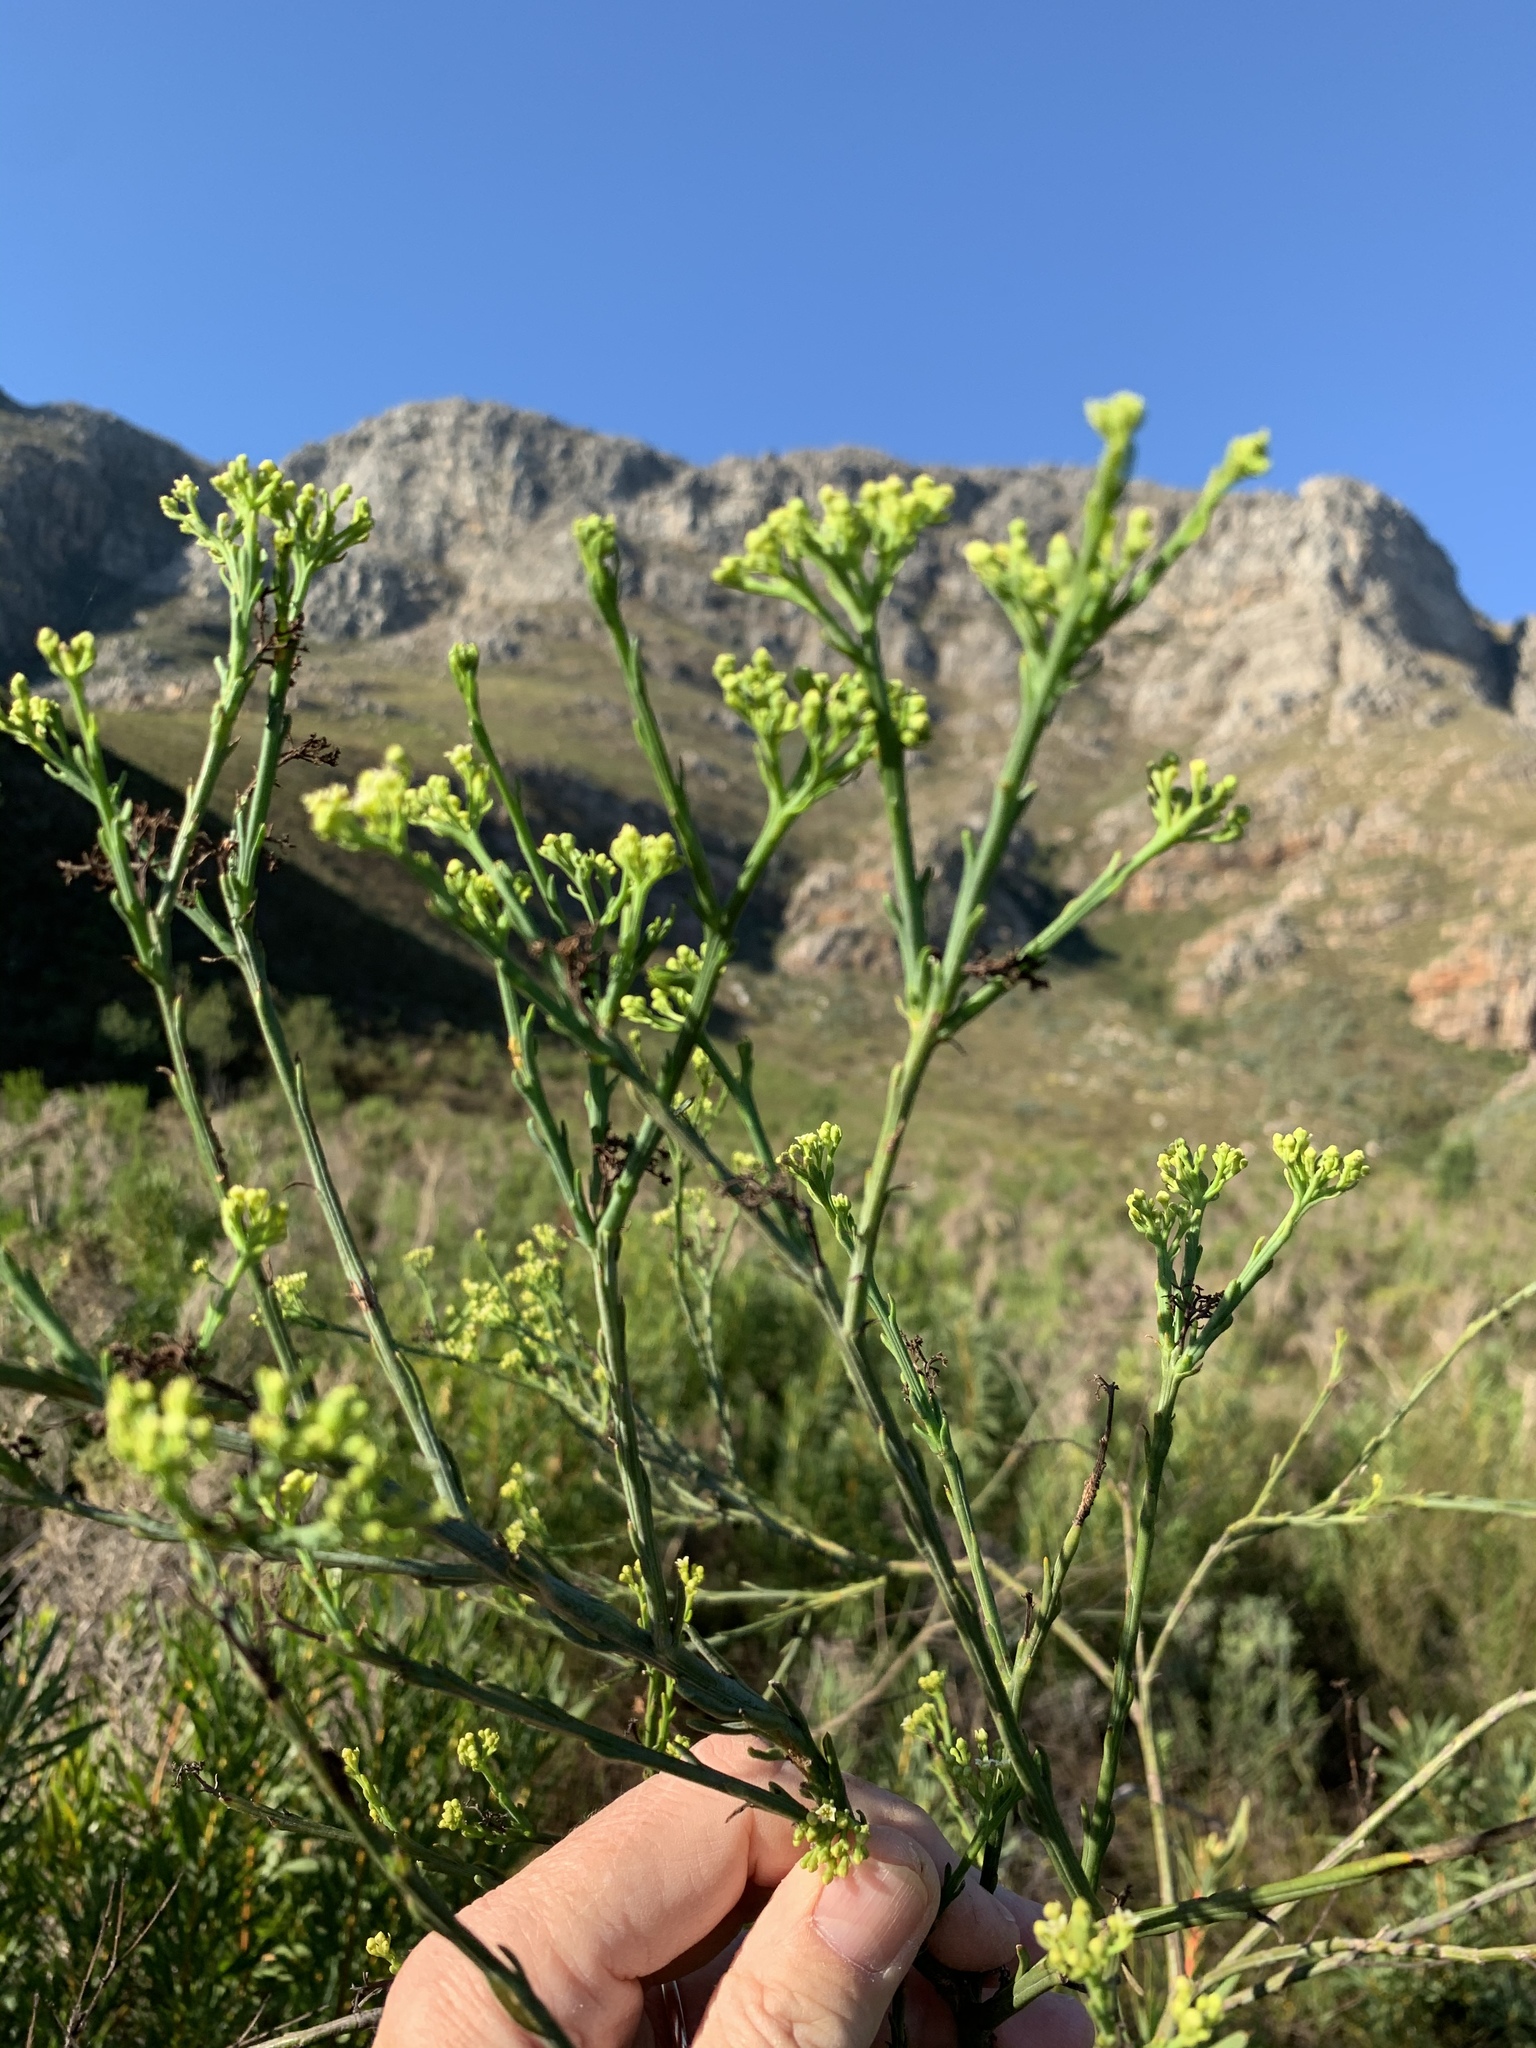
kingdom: Plantae
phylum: Tracheophyta
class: Magnoliopsida
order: Santalales
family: Thesiaceae
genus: Thesium
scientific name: Thesium strictum
